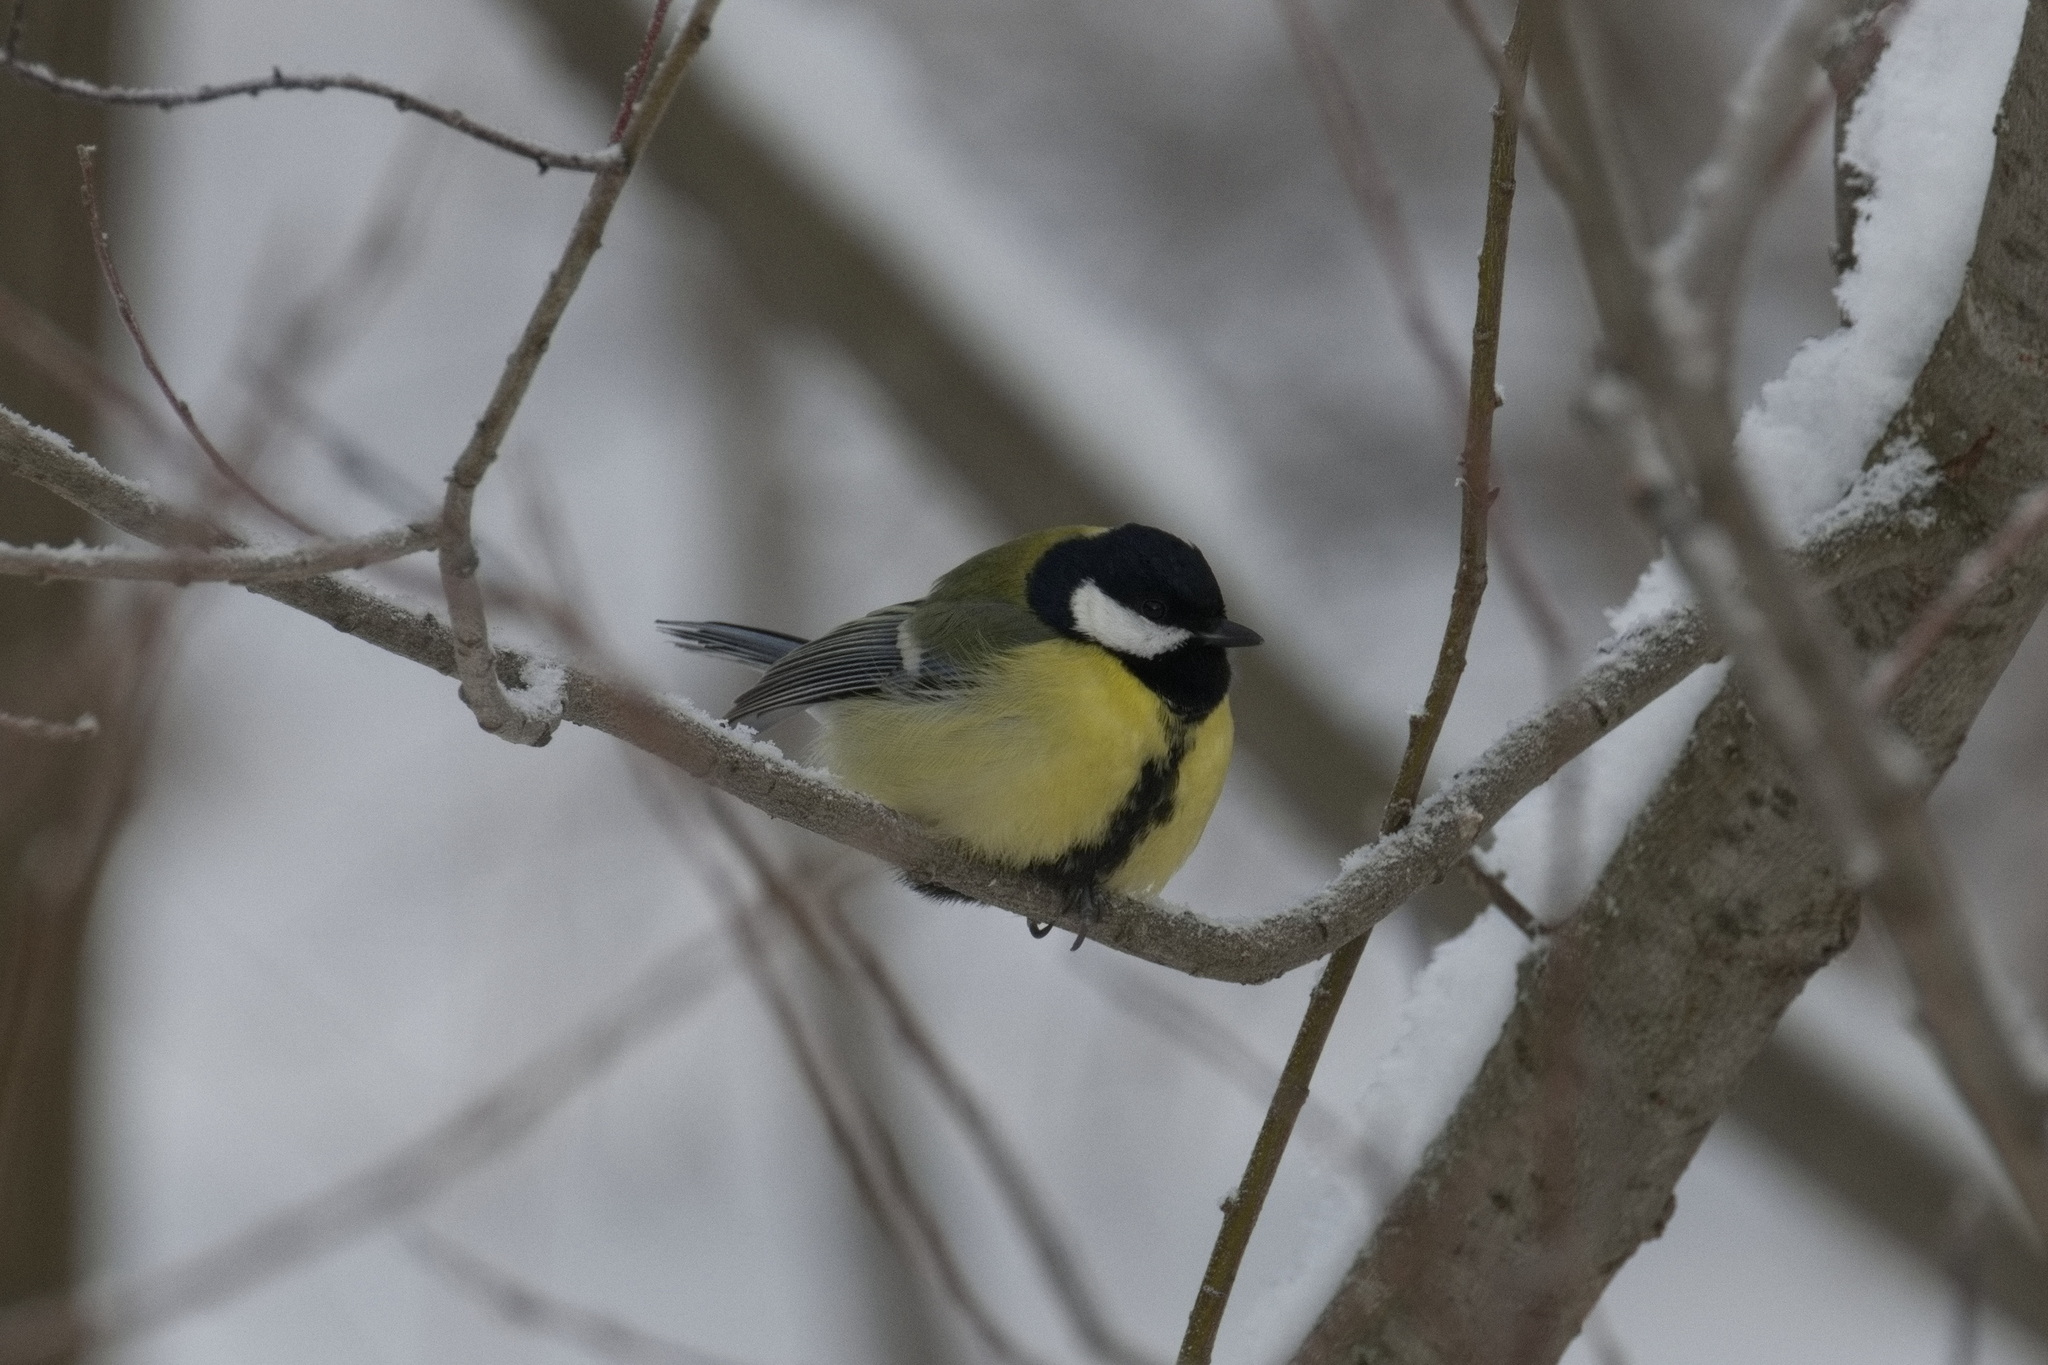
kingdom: Animalia
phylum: Chordata
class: Aves
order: Passeriformes
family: Paridae
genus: Parus
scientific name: Parus major
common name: Great tit
